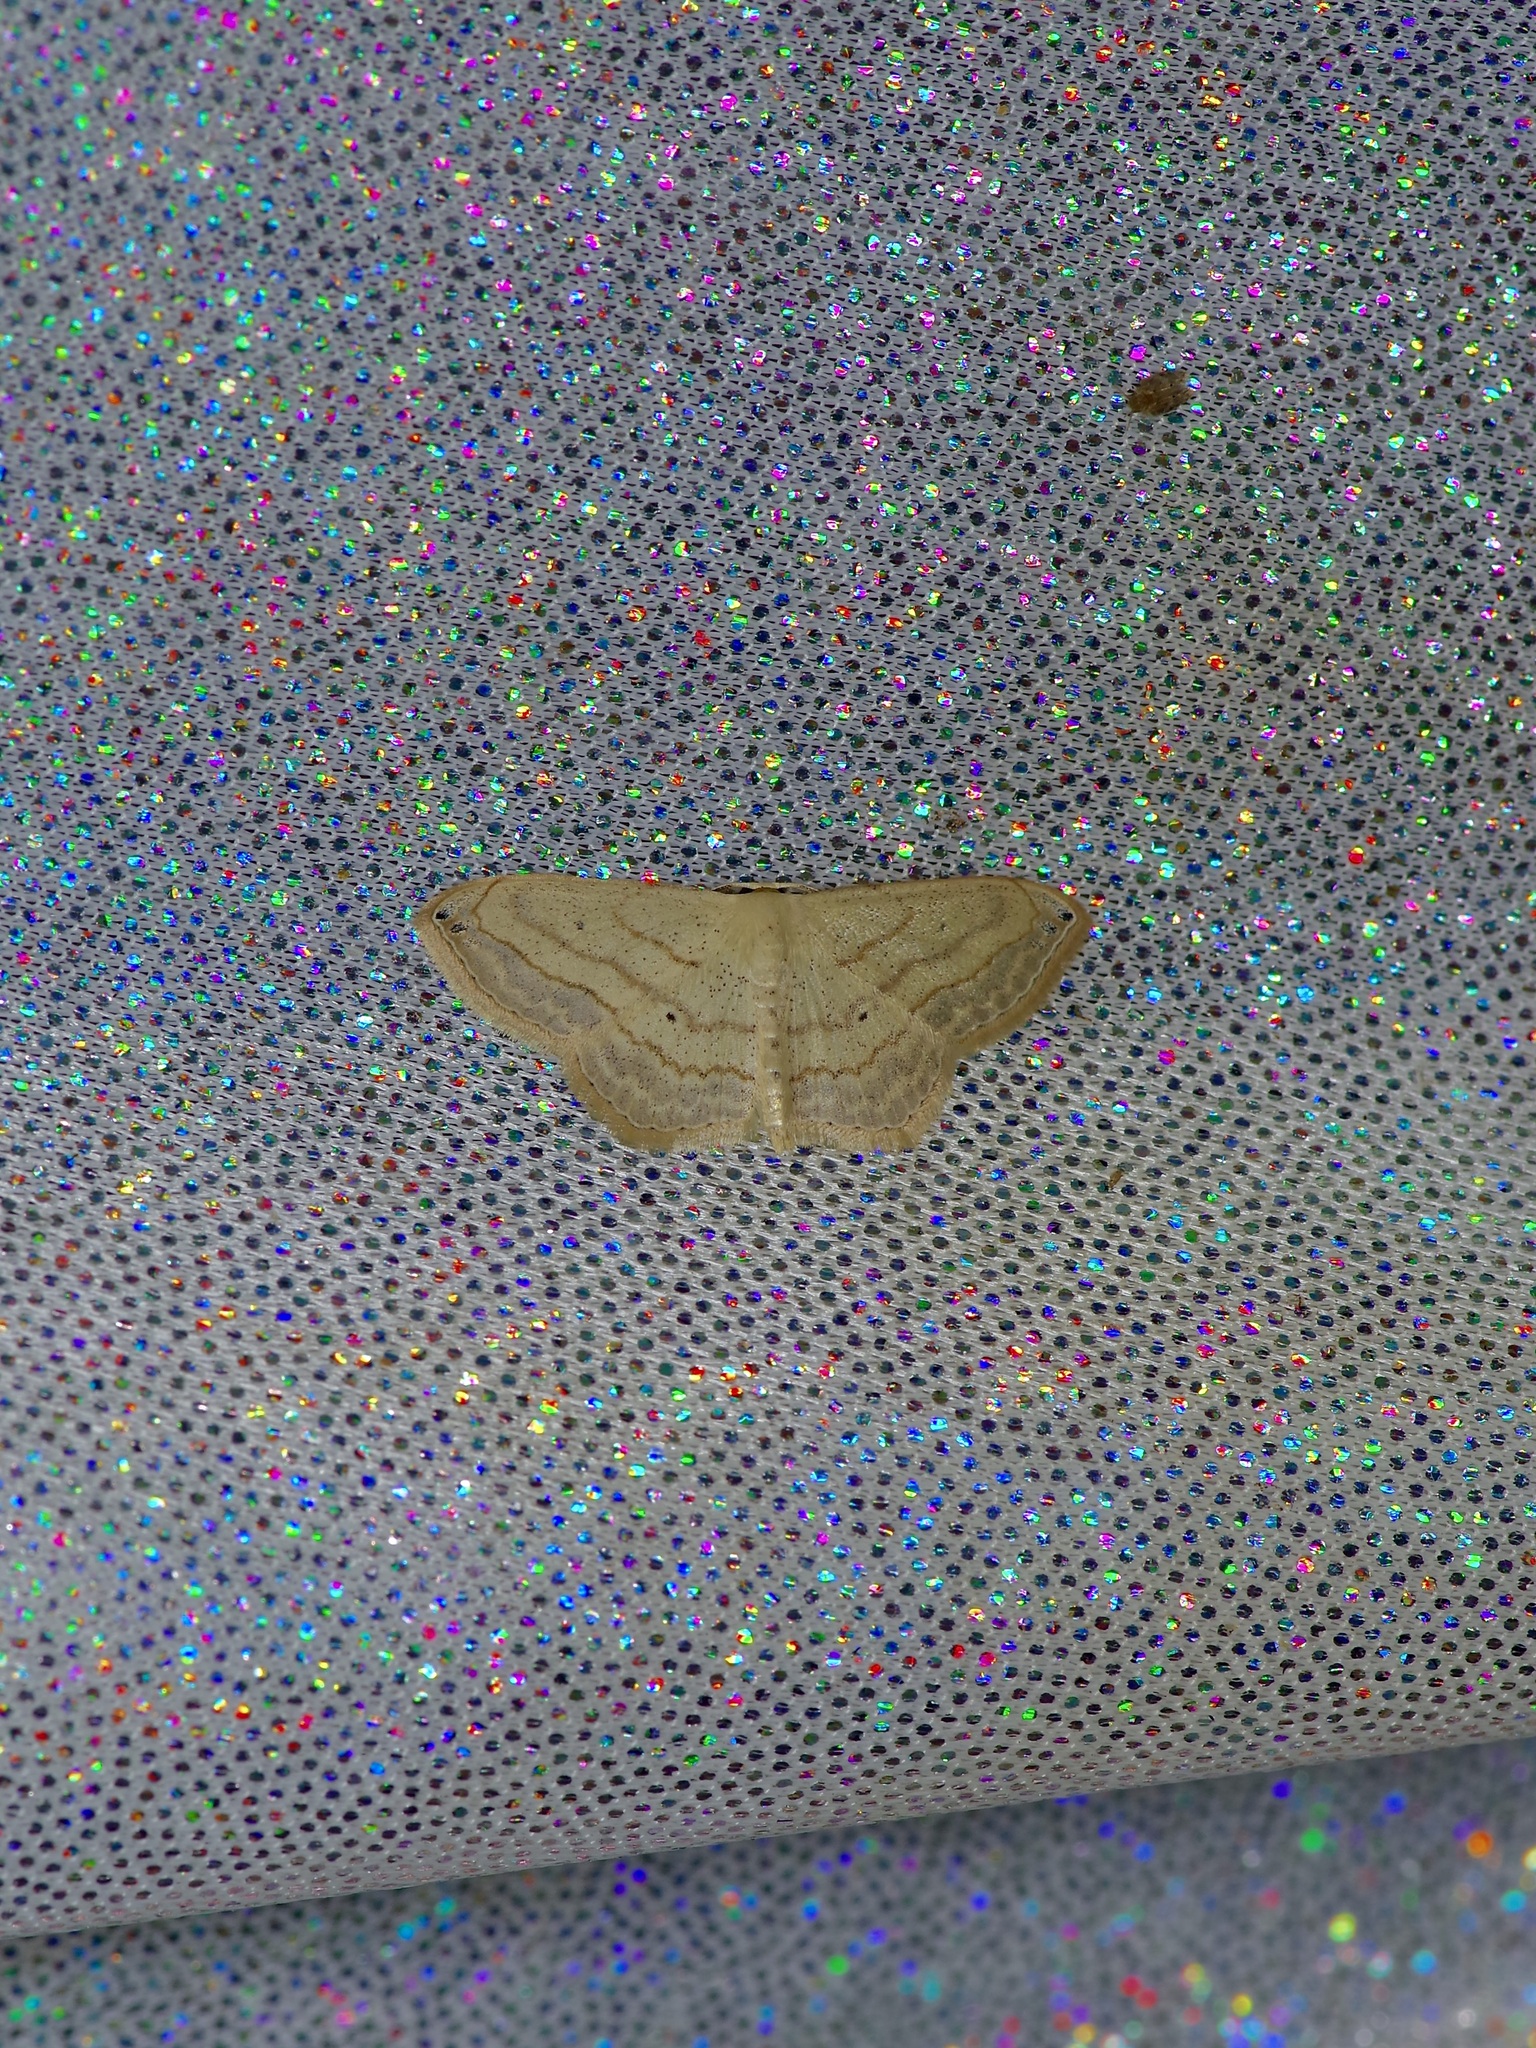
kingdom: Animalia
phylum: Arthropoda
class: Insecta
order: Lepidoptera
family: Geometridae
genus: Scopula
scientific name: Scopula umbilicata
